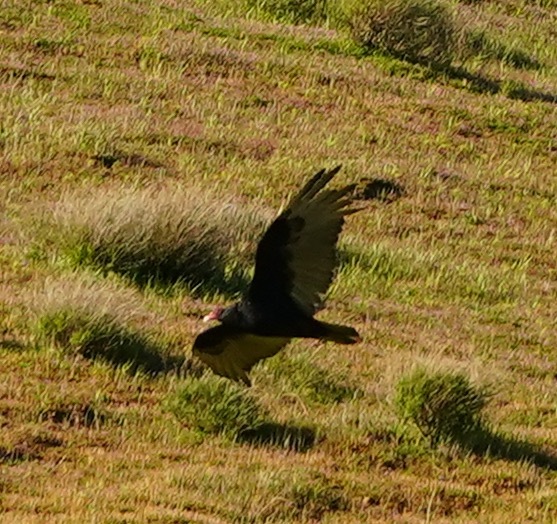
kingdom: Animalia
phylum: Chordata
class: Aves
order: Accipitriformes
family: Cathartidae
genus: Cathartes
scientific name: Cathartes aura
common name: Turkey vulture
